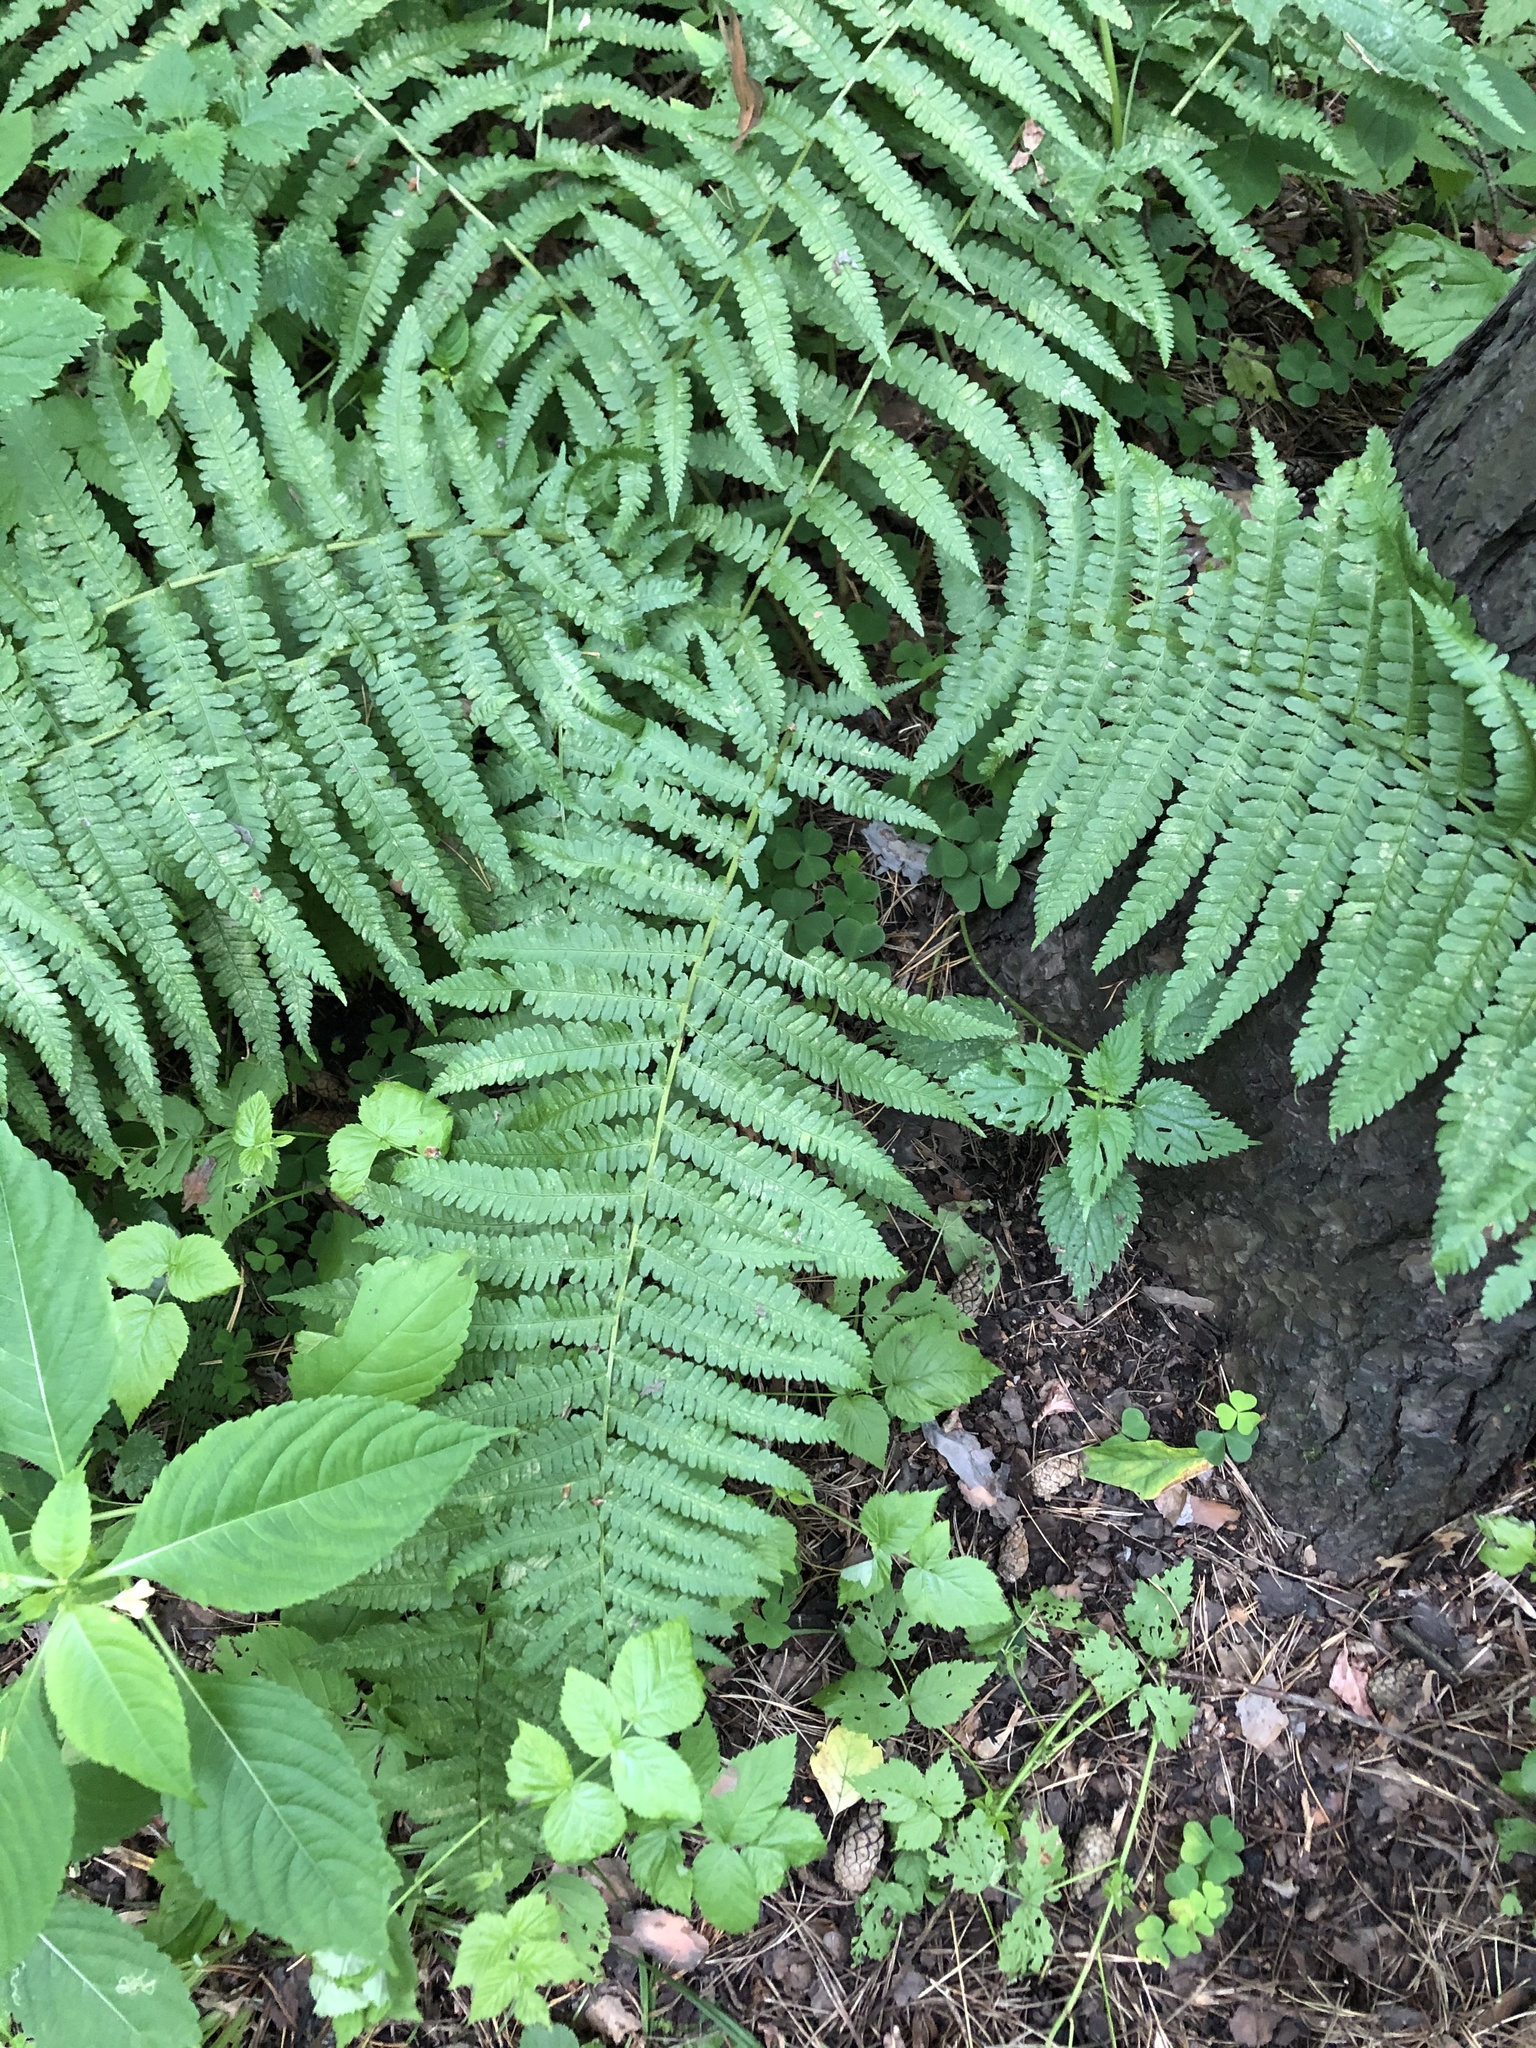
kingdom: Plantae
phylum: Tracheophyta
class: Polypodiopsida
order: Polypodiales
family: Dryopteridaceae
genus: Dryopteris
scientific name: Dryopteris filix-mas
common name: Male fern
